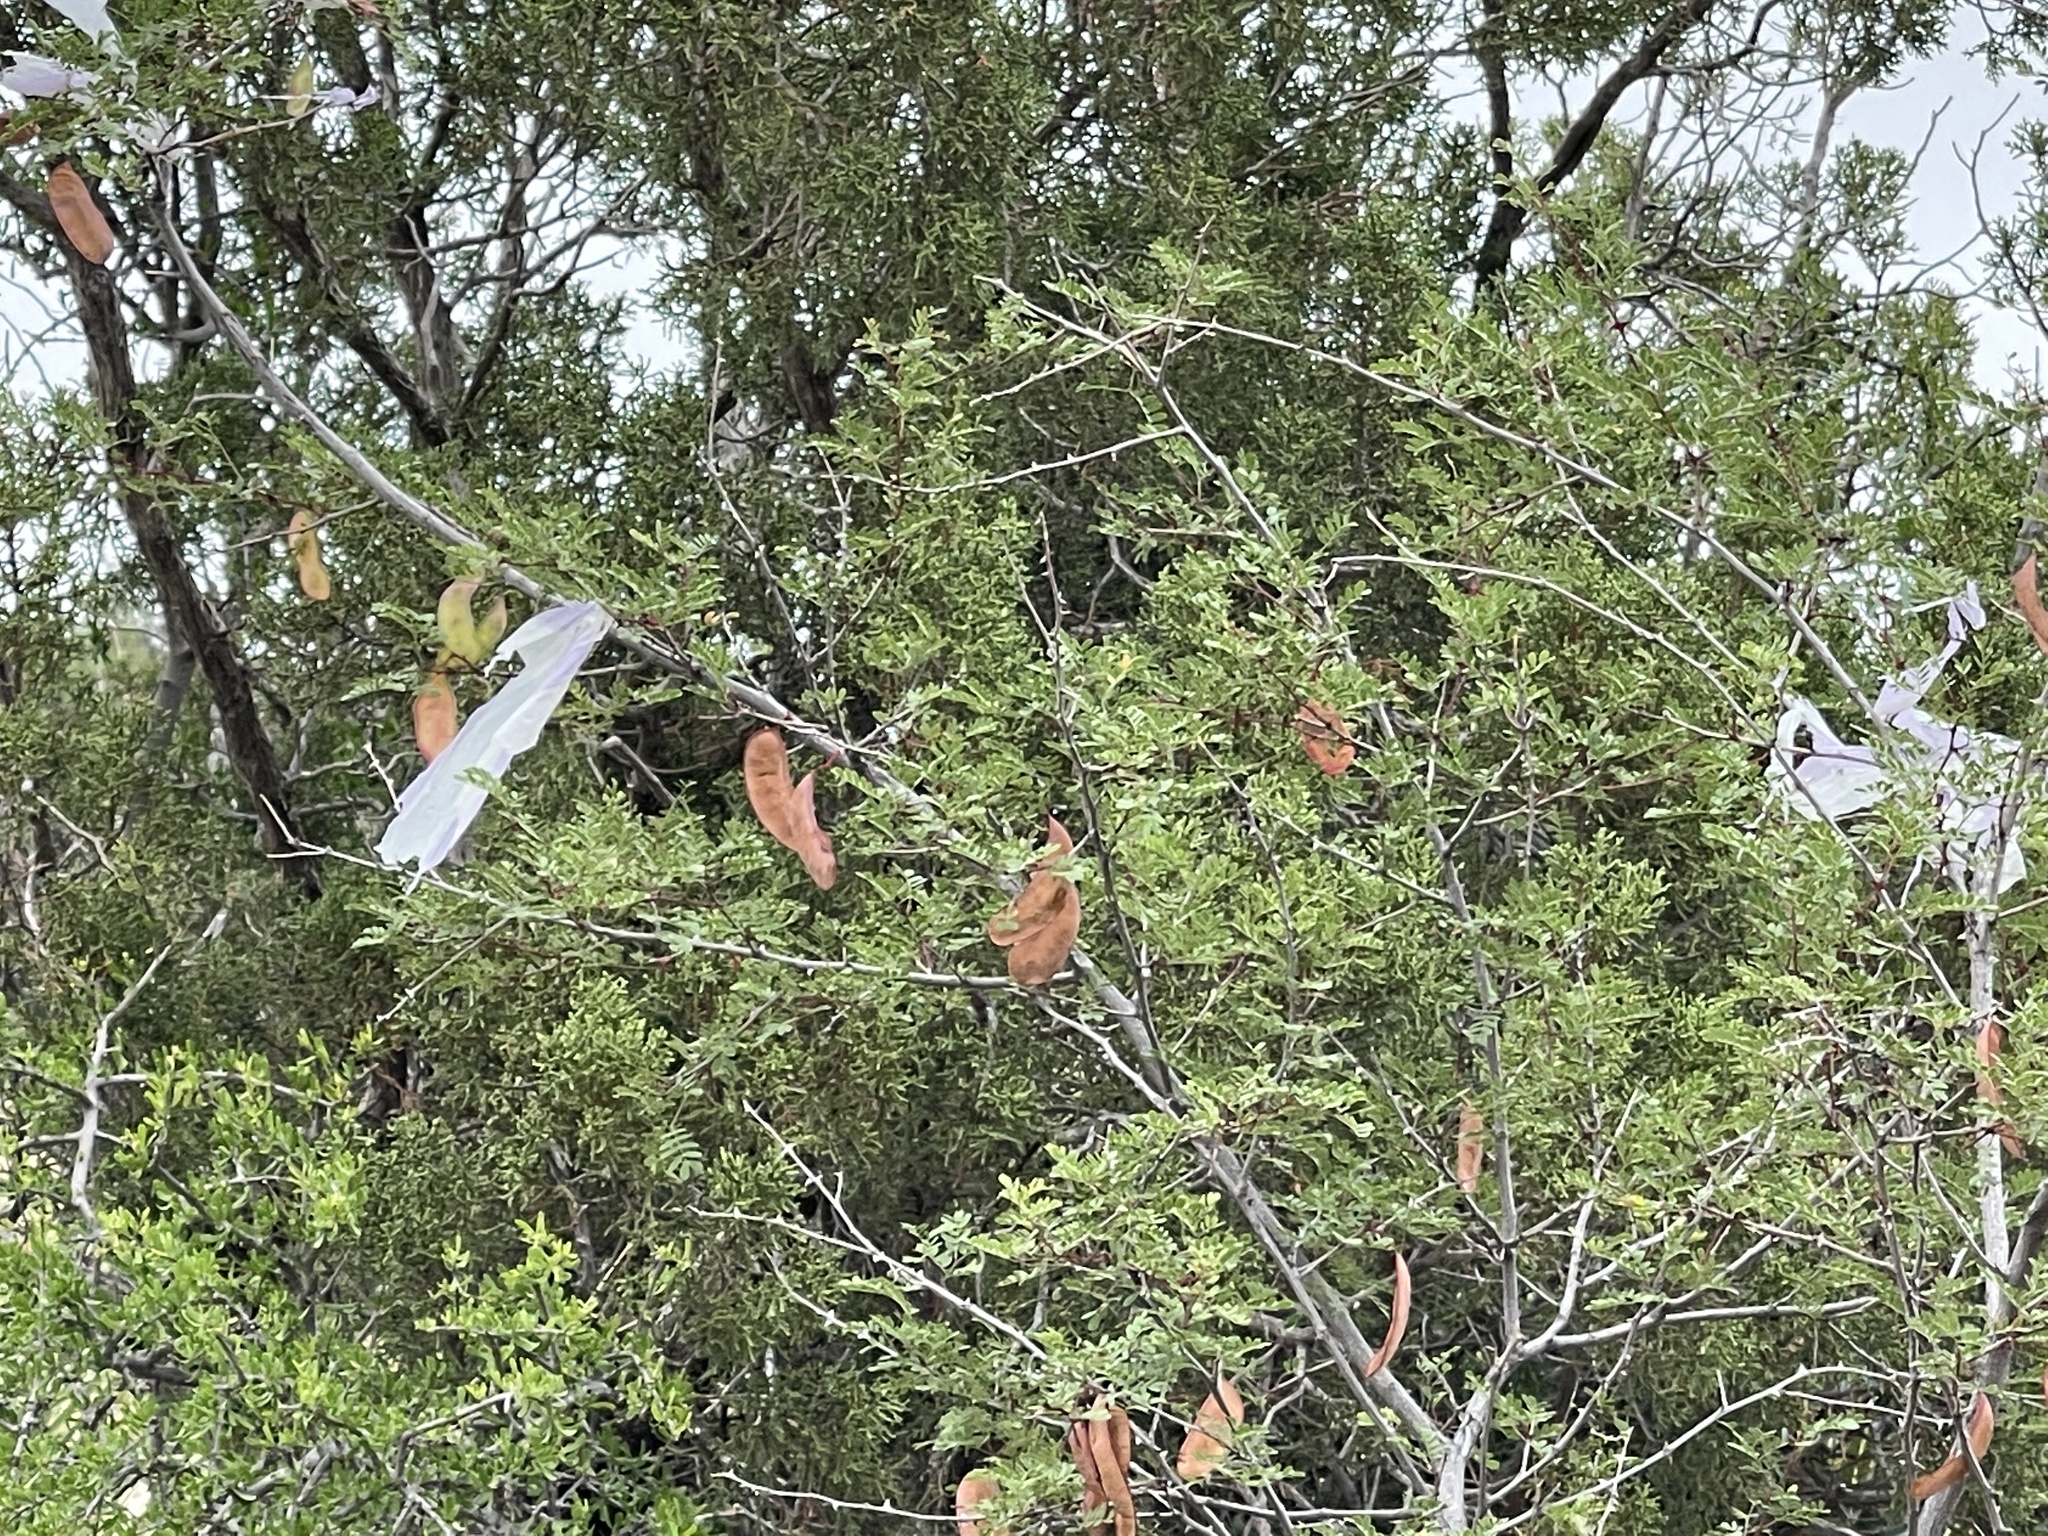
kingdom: Plantae
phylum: Tracheophyta
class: Magnoliopsida
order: Fabales
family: Fabaceae
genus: Senegalia
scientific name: Senegalia roemeriana
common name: Roemer's acacia
